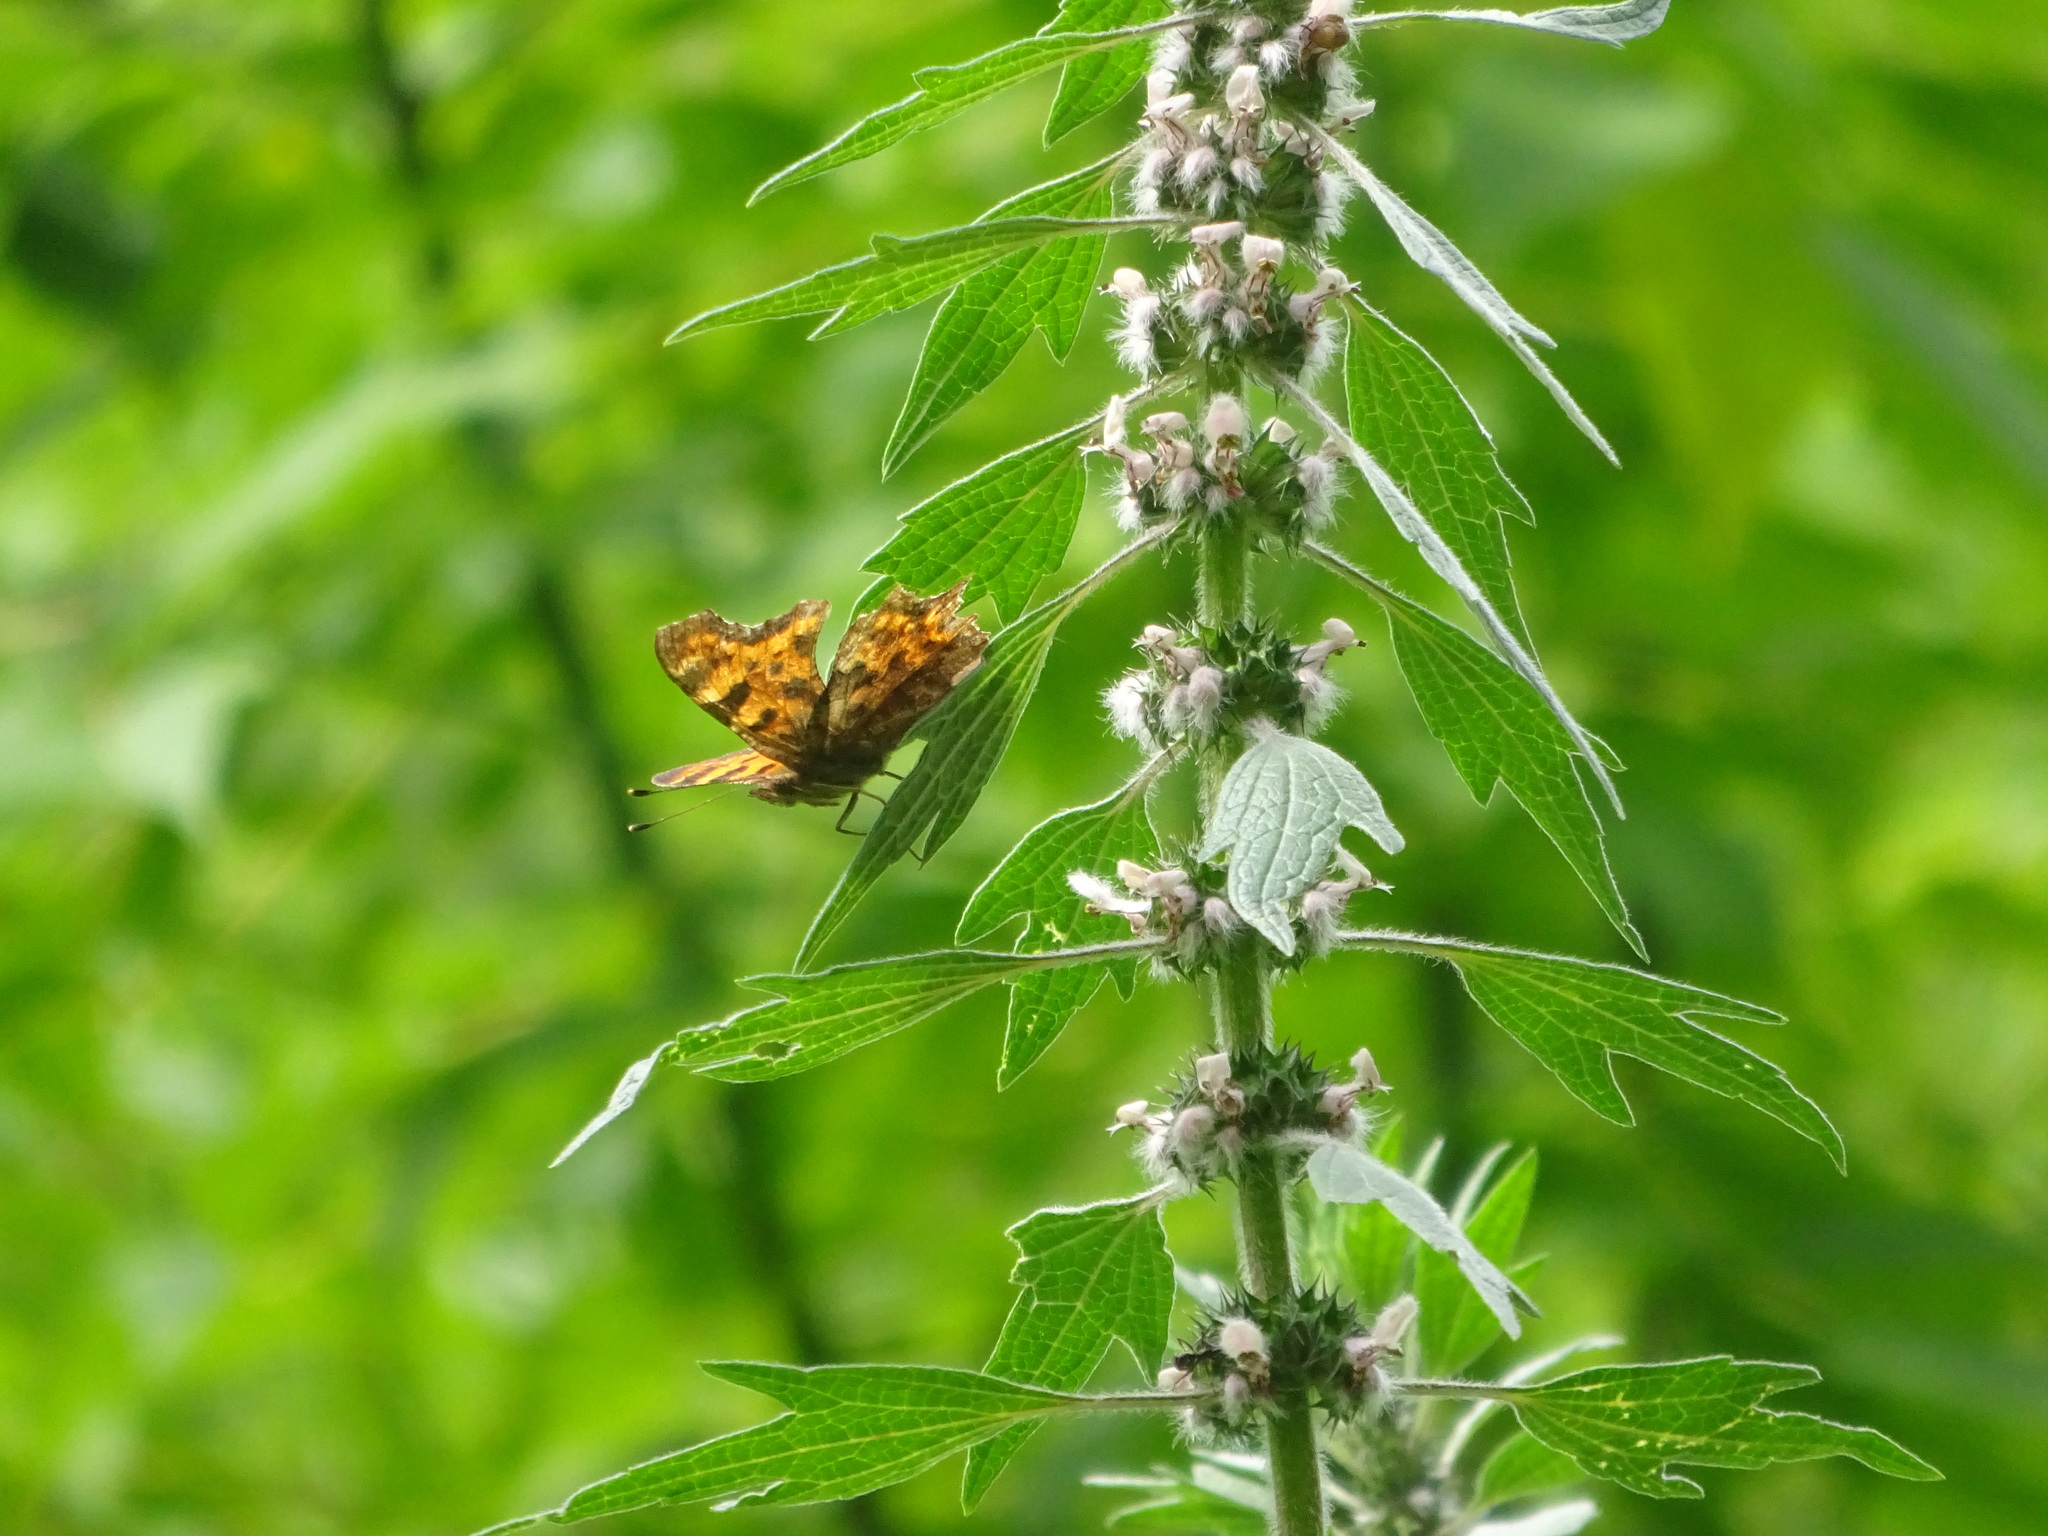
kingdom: Animalia
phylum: Arthropoda
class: Insecta
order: Lepidoptera
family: Nymphalidae
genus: Polygonia
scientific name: Polygonia c-album
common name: Comma
